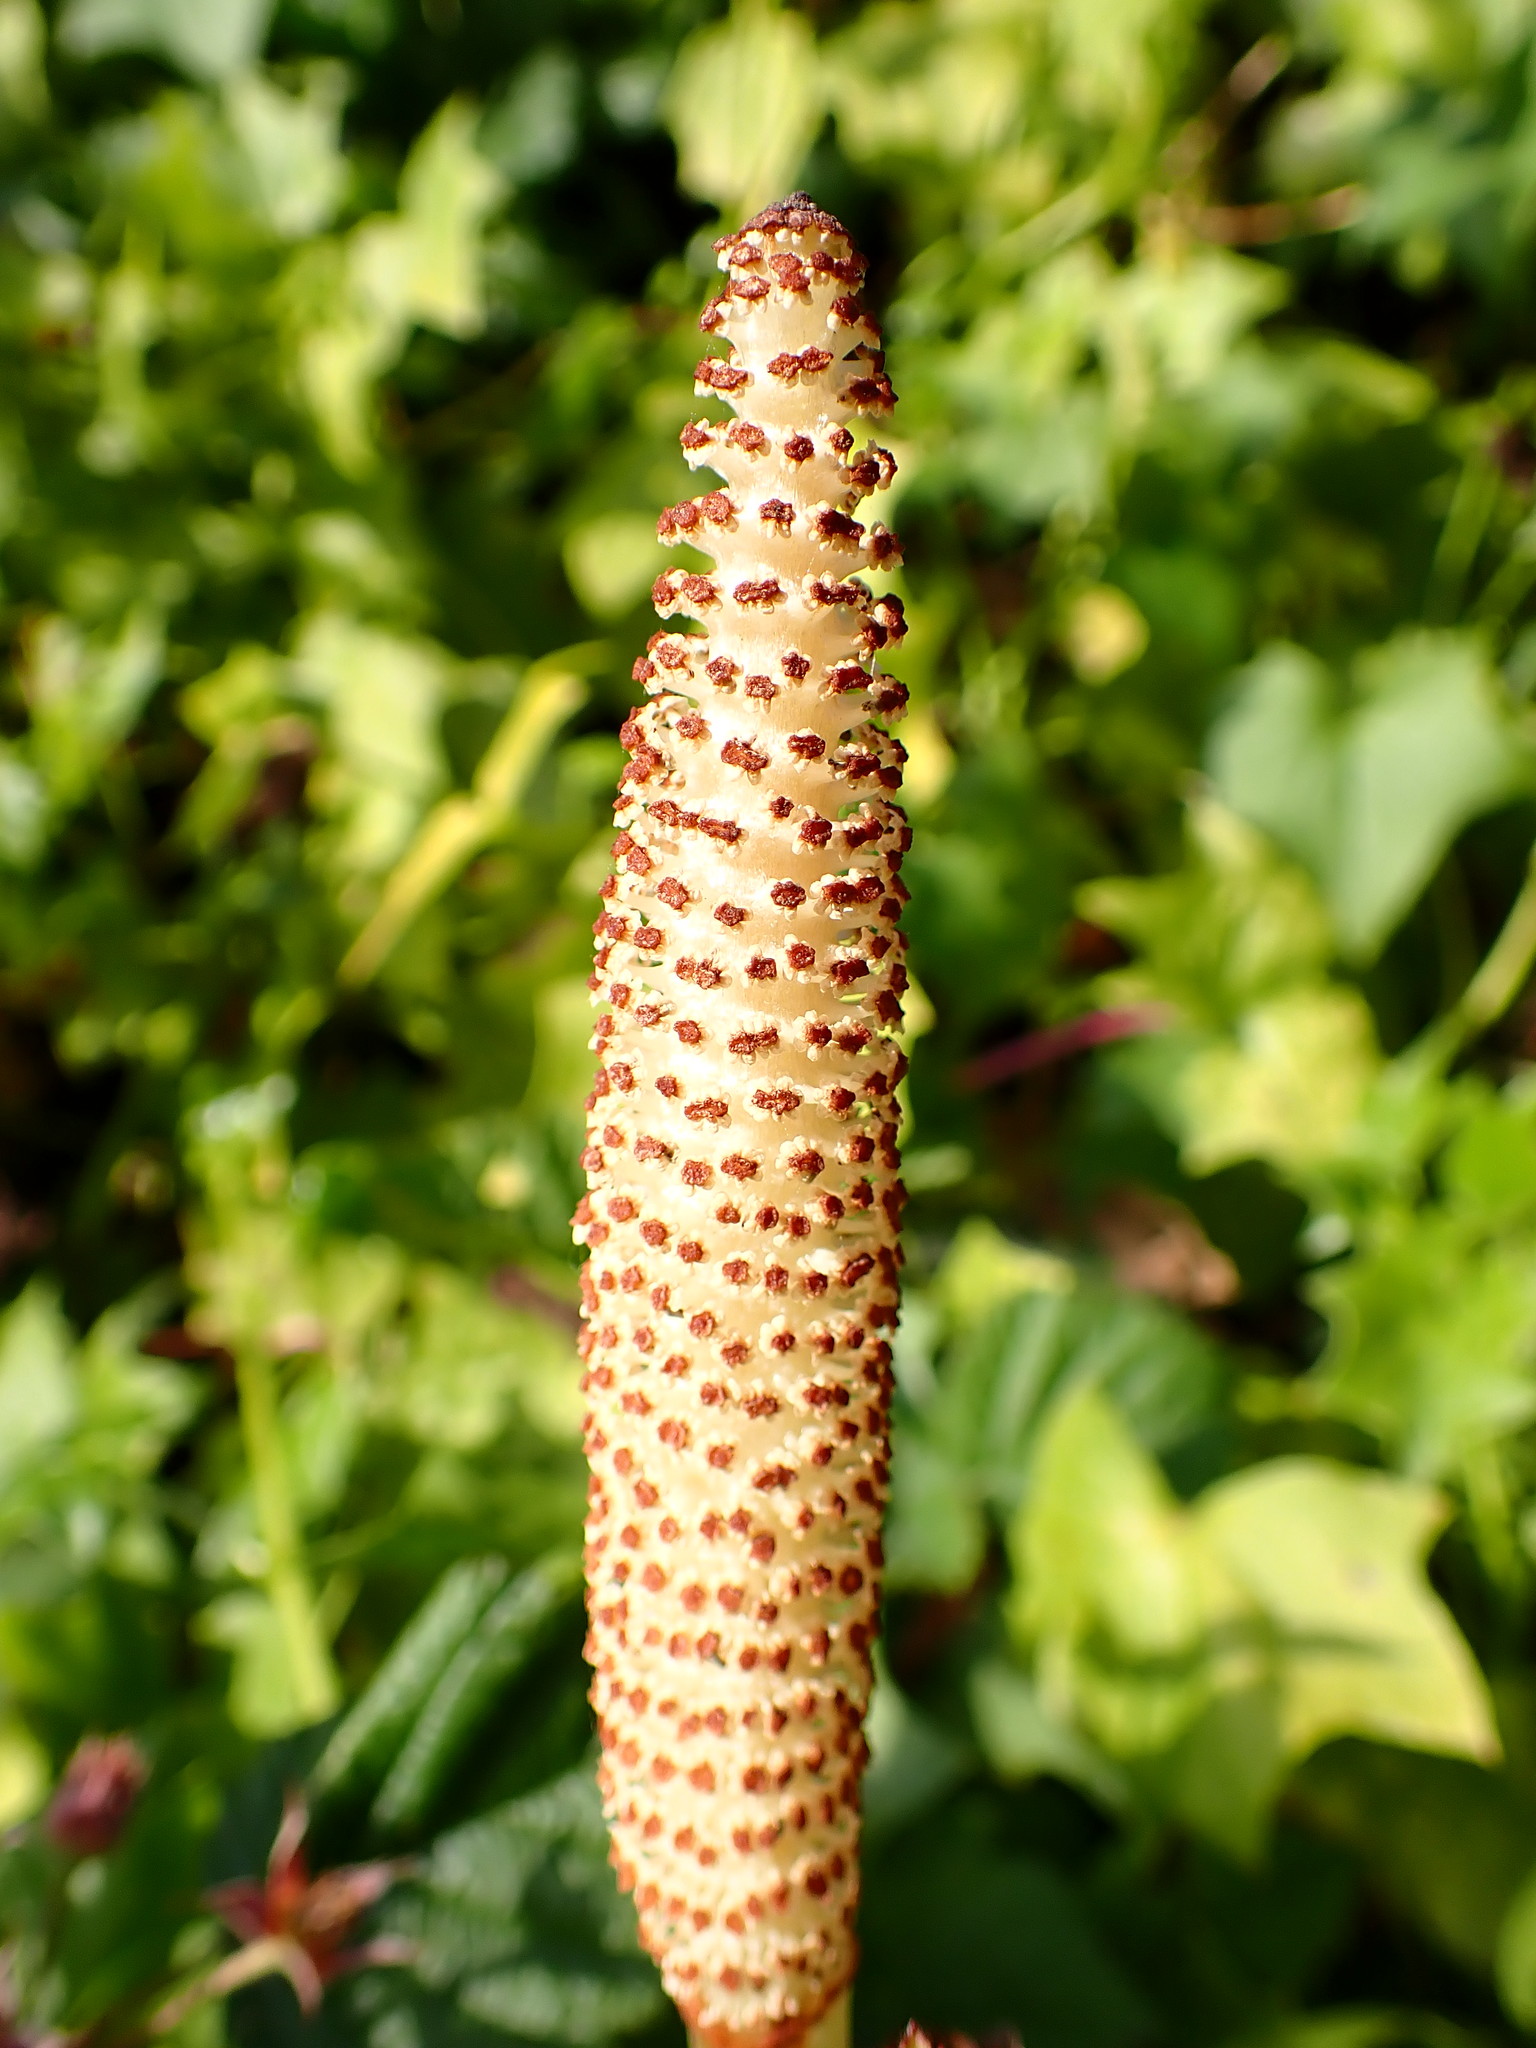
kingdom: Plantae
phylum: Tracheophyta
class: Polypodiopsida
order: Equisetales
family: Equisetaceae
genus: Equisetum
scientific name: Equisetum telmateia
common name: Great horsetail
